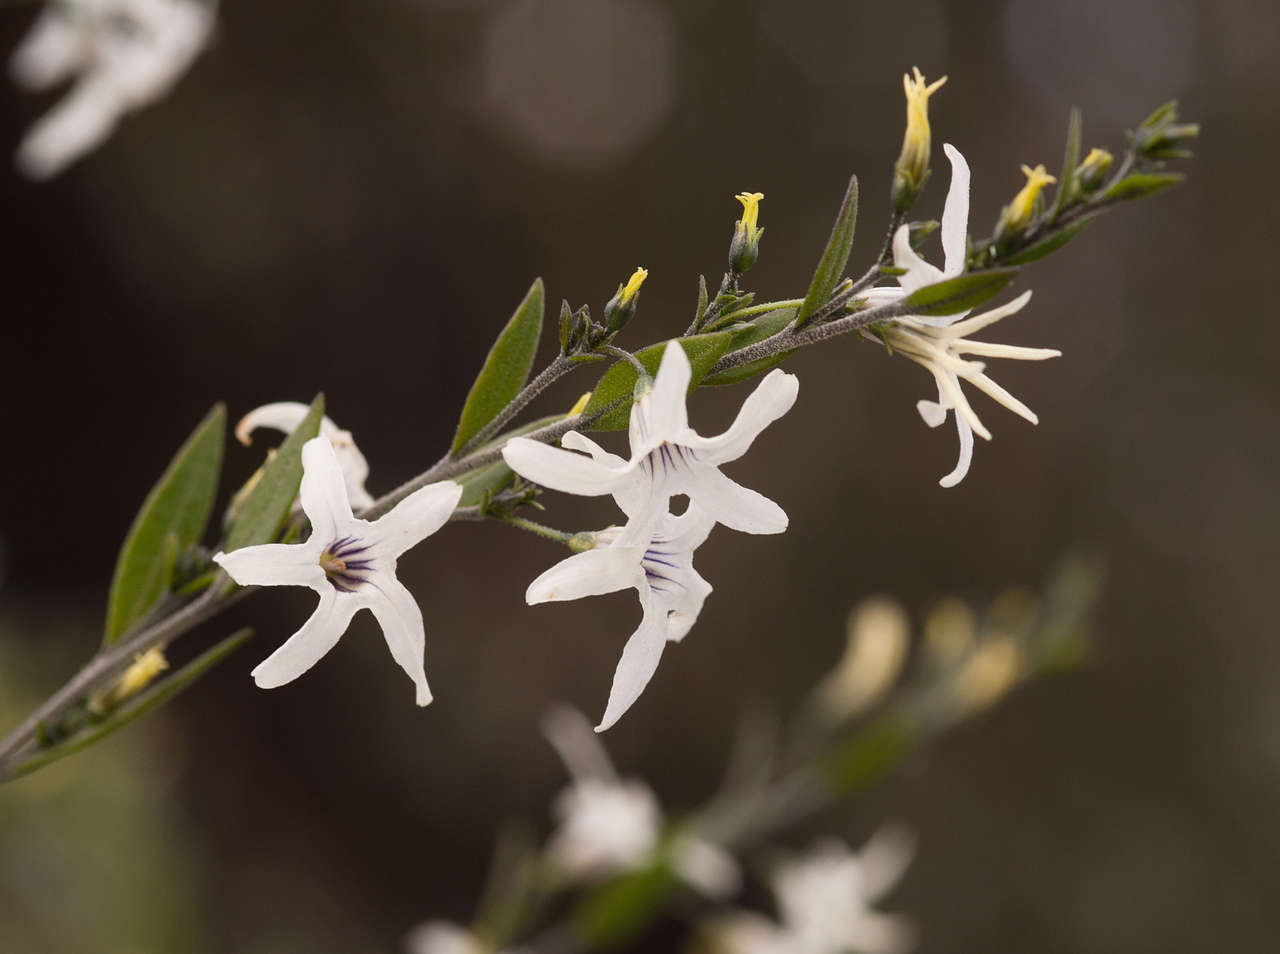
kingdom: Plantae
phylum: Tracheophyta
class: Magnoliopsida
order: Solanales
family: Solanaceae
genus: Cyphanthera
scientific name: Cyphanthera anthocercidea
